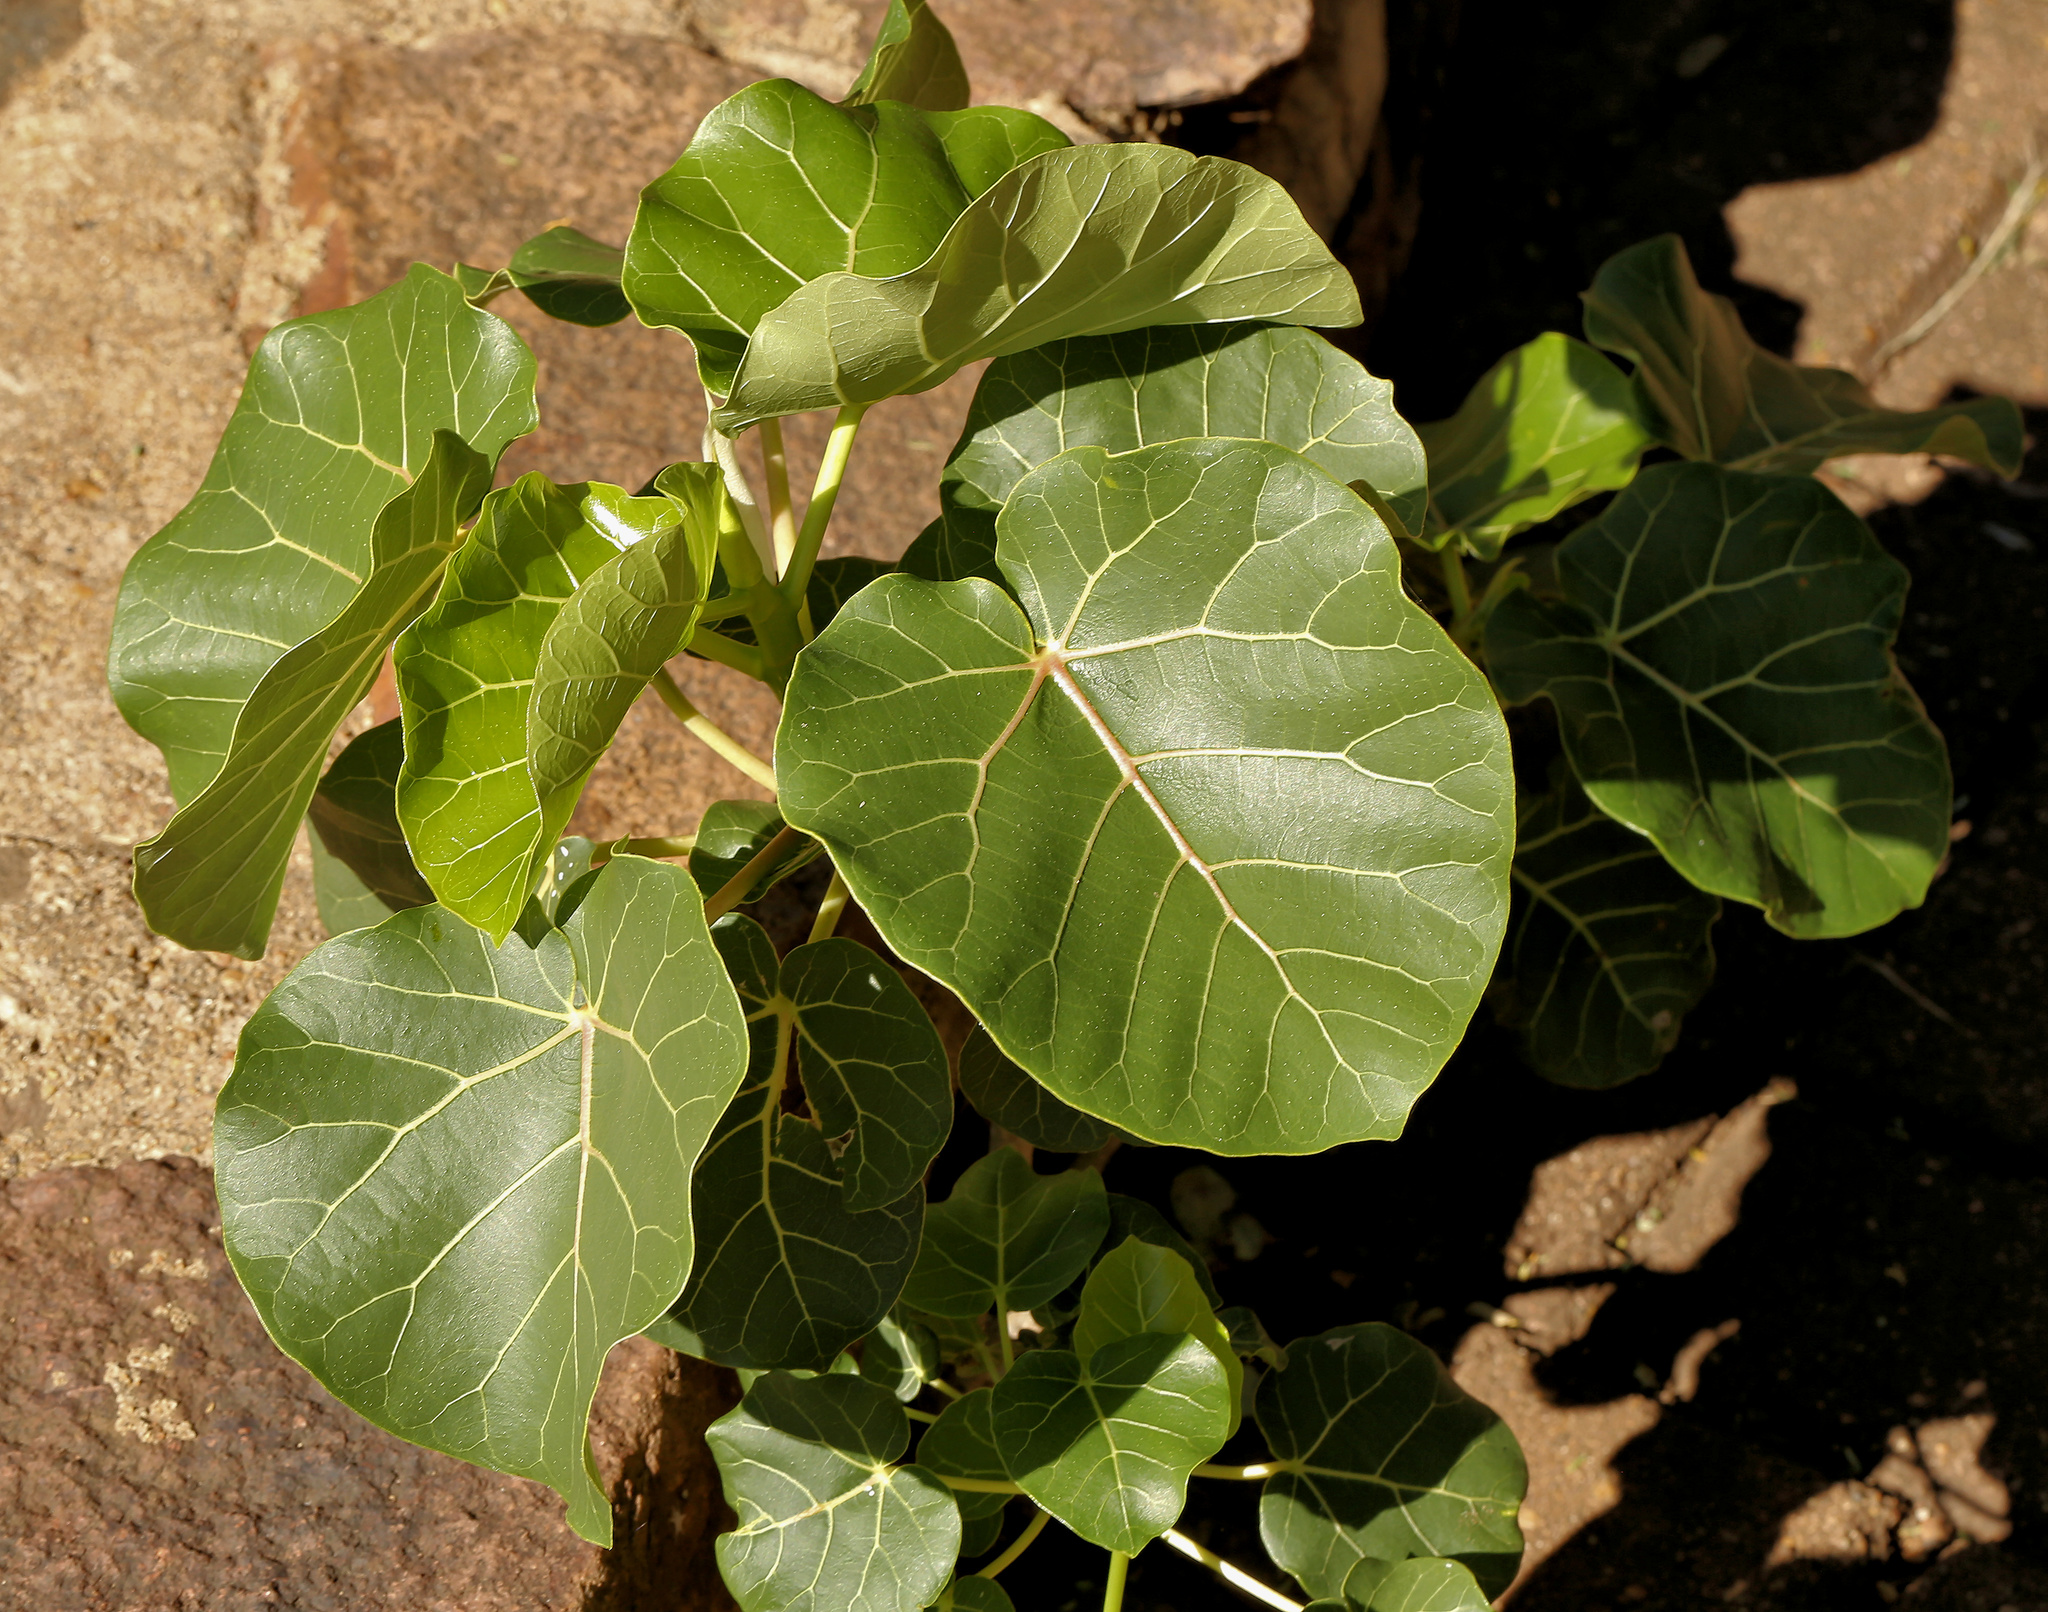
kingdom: Plantae
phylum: Tracheophyta
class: Magnoliopsida
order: Rosales
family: Moraceae
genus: Ficus
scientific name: Ficus abutilifolia
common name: Large-leaved rock fig
